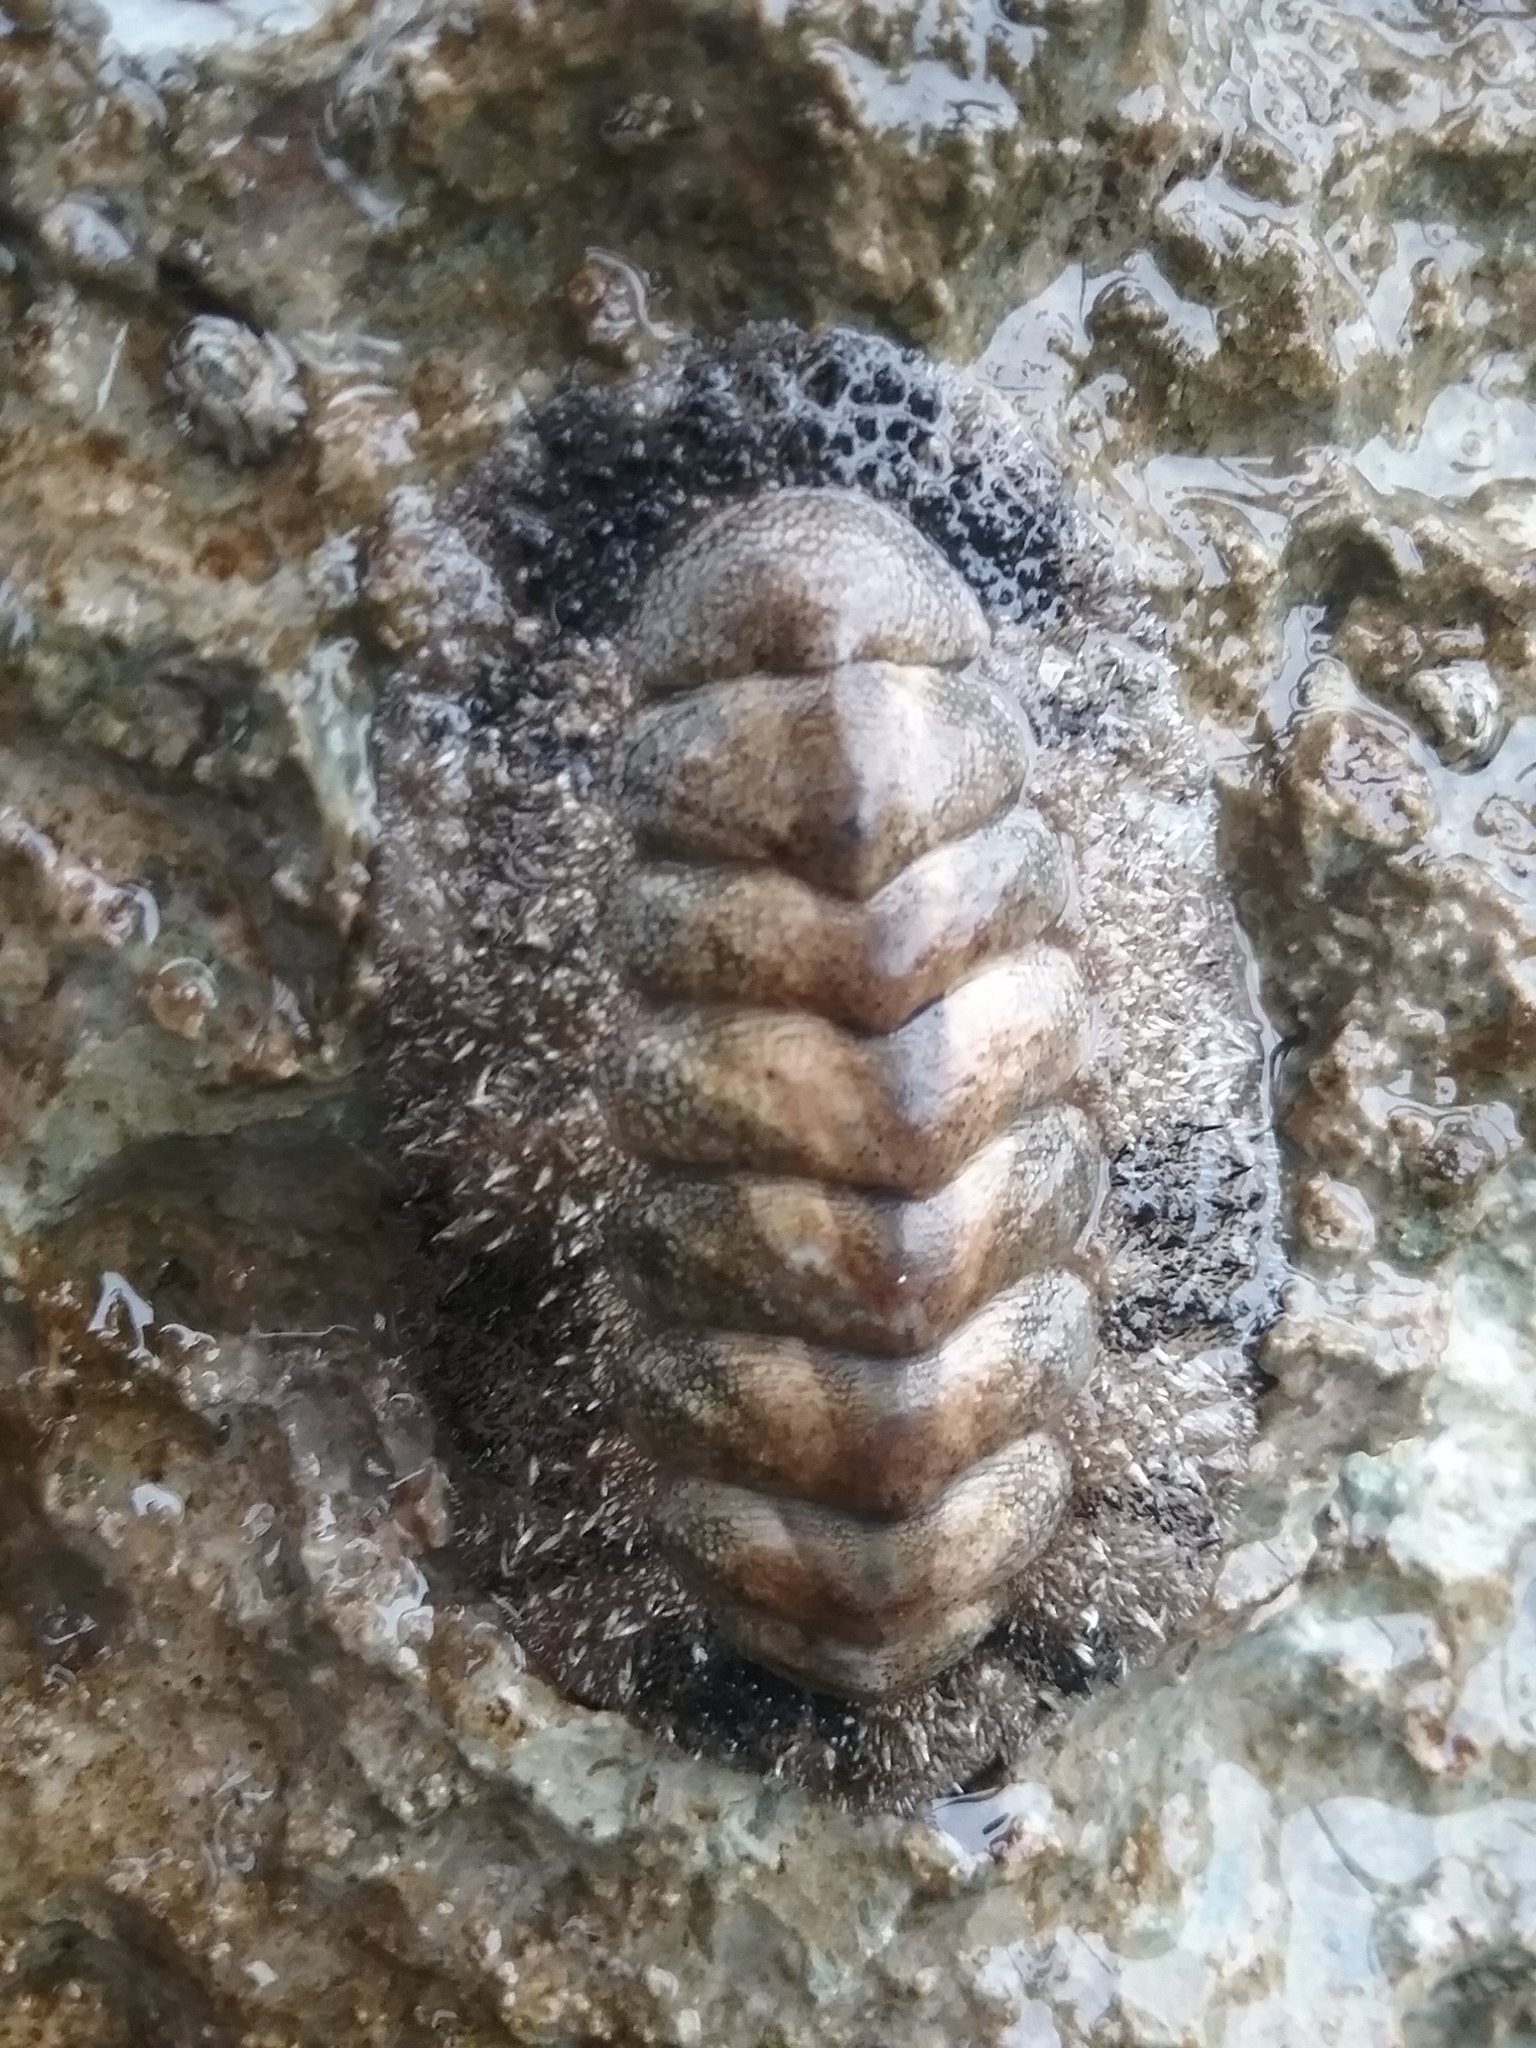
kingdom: Animalia
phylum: Mollusca
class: Polyplacophora
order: Chitonida
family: Chitonidae
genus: Acanthopleura
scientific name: Acanthopleura granulata
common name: West indian fuzzy chiton
